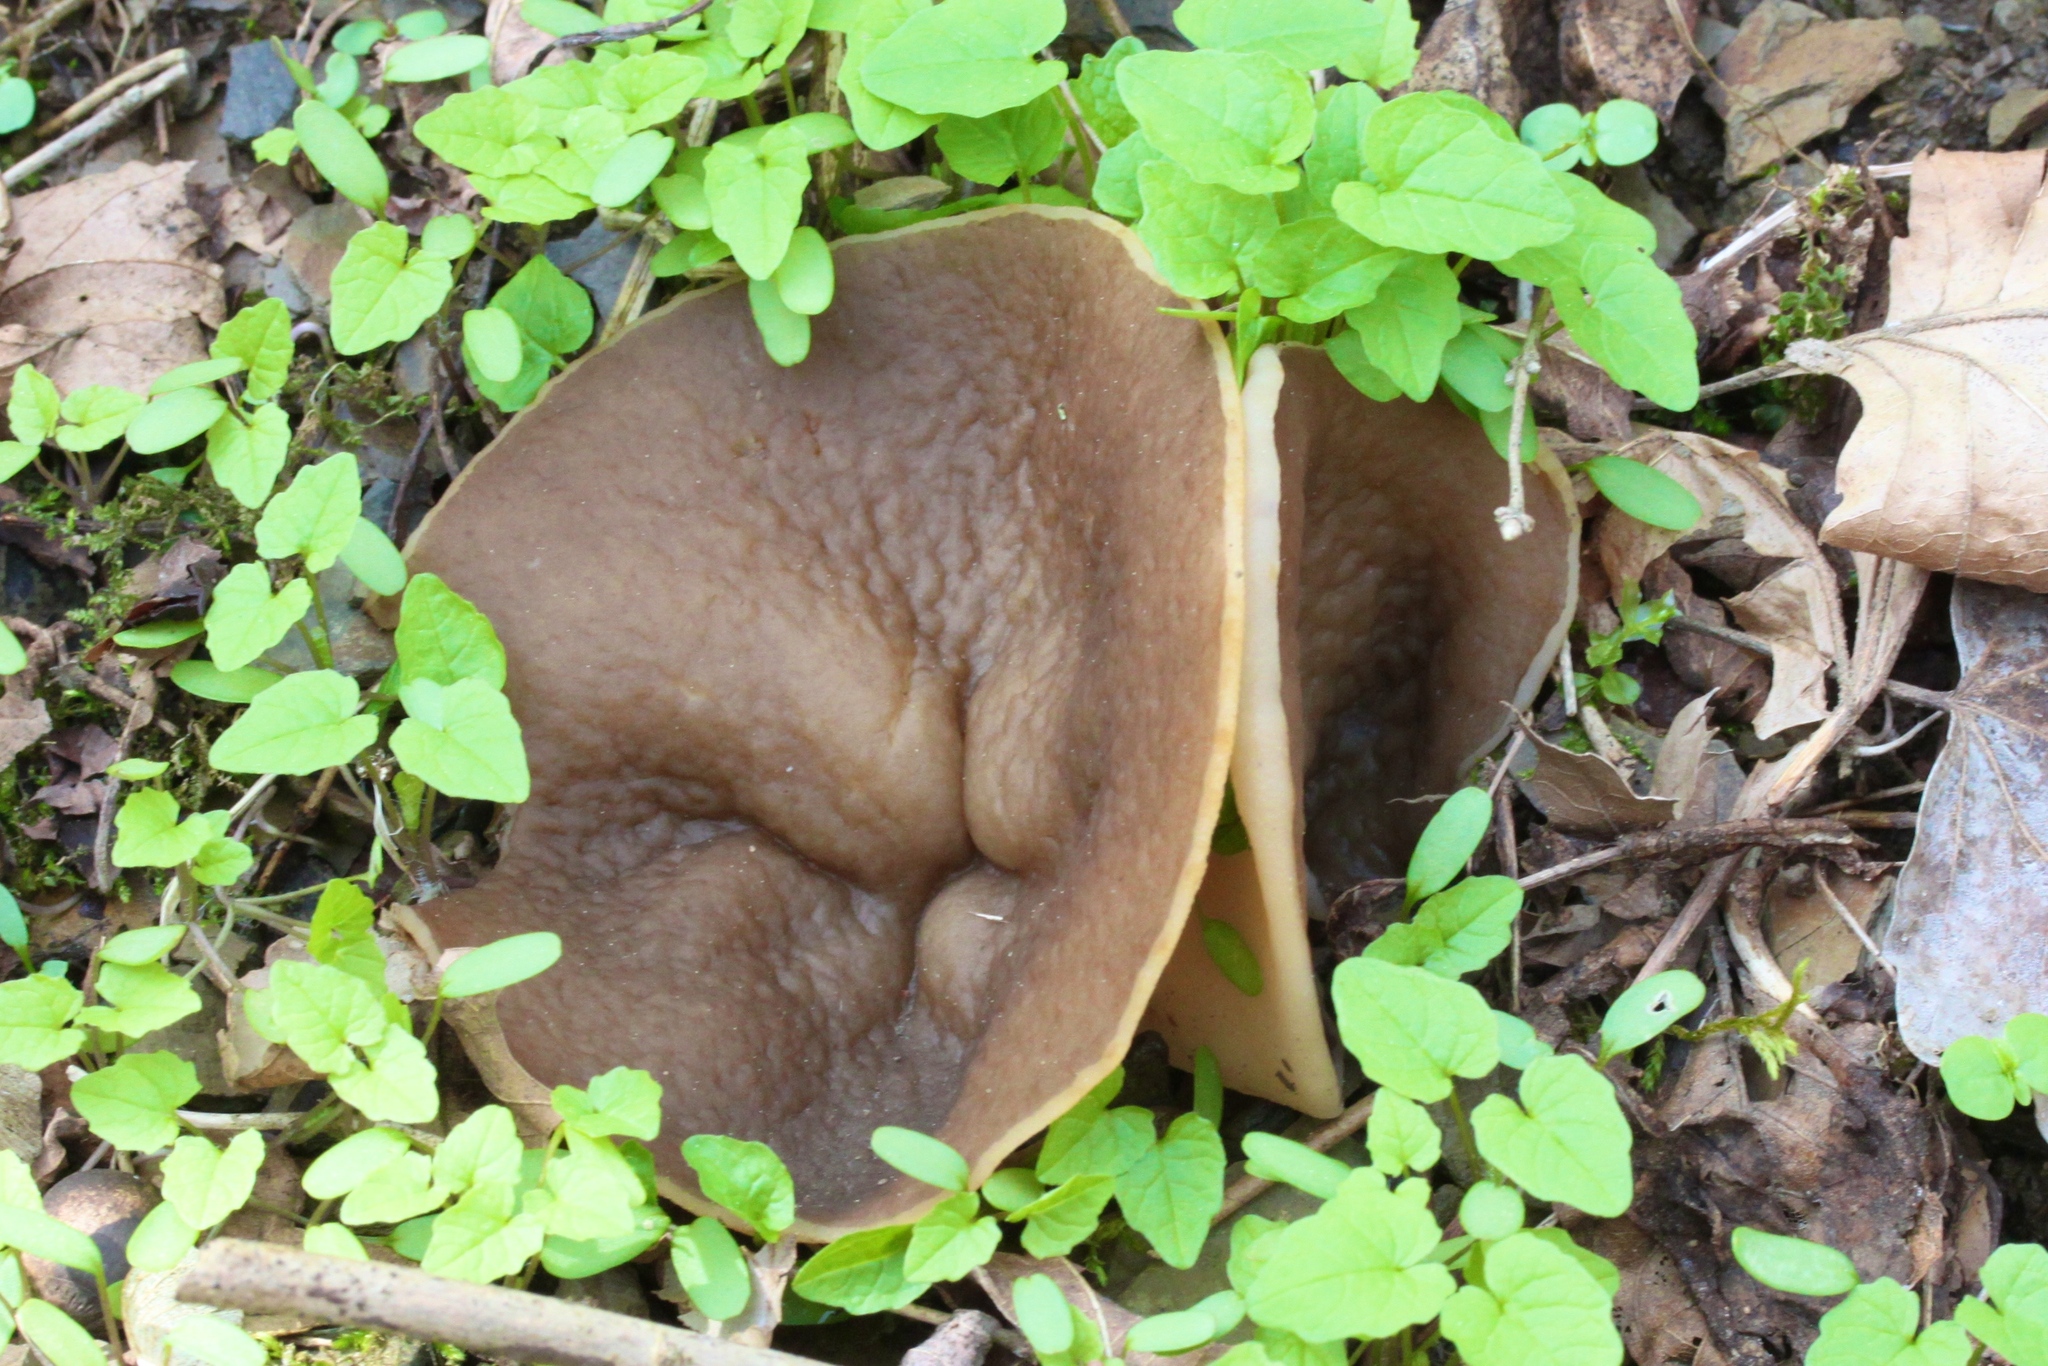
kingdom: Fungi
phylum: Ascomycota
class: Pezizomycetes
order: Pezizales
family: Morchellaceae
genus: Disciotis
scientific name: Disciotis venosa
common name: Bleach cup
